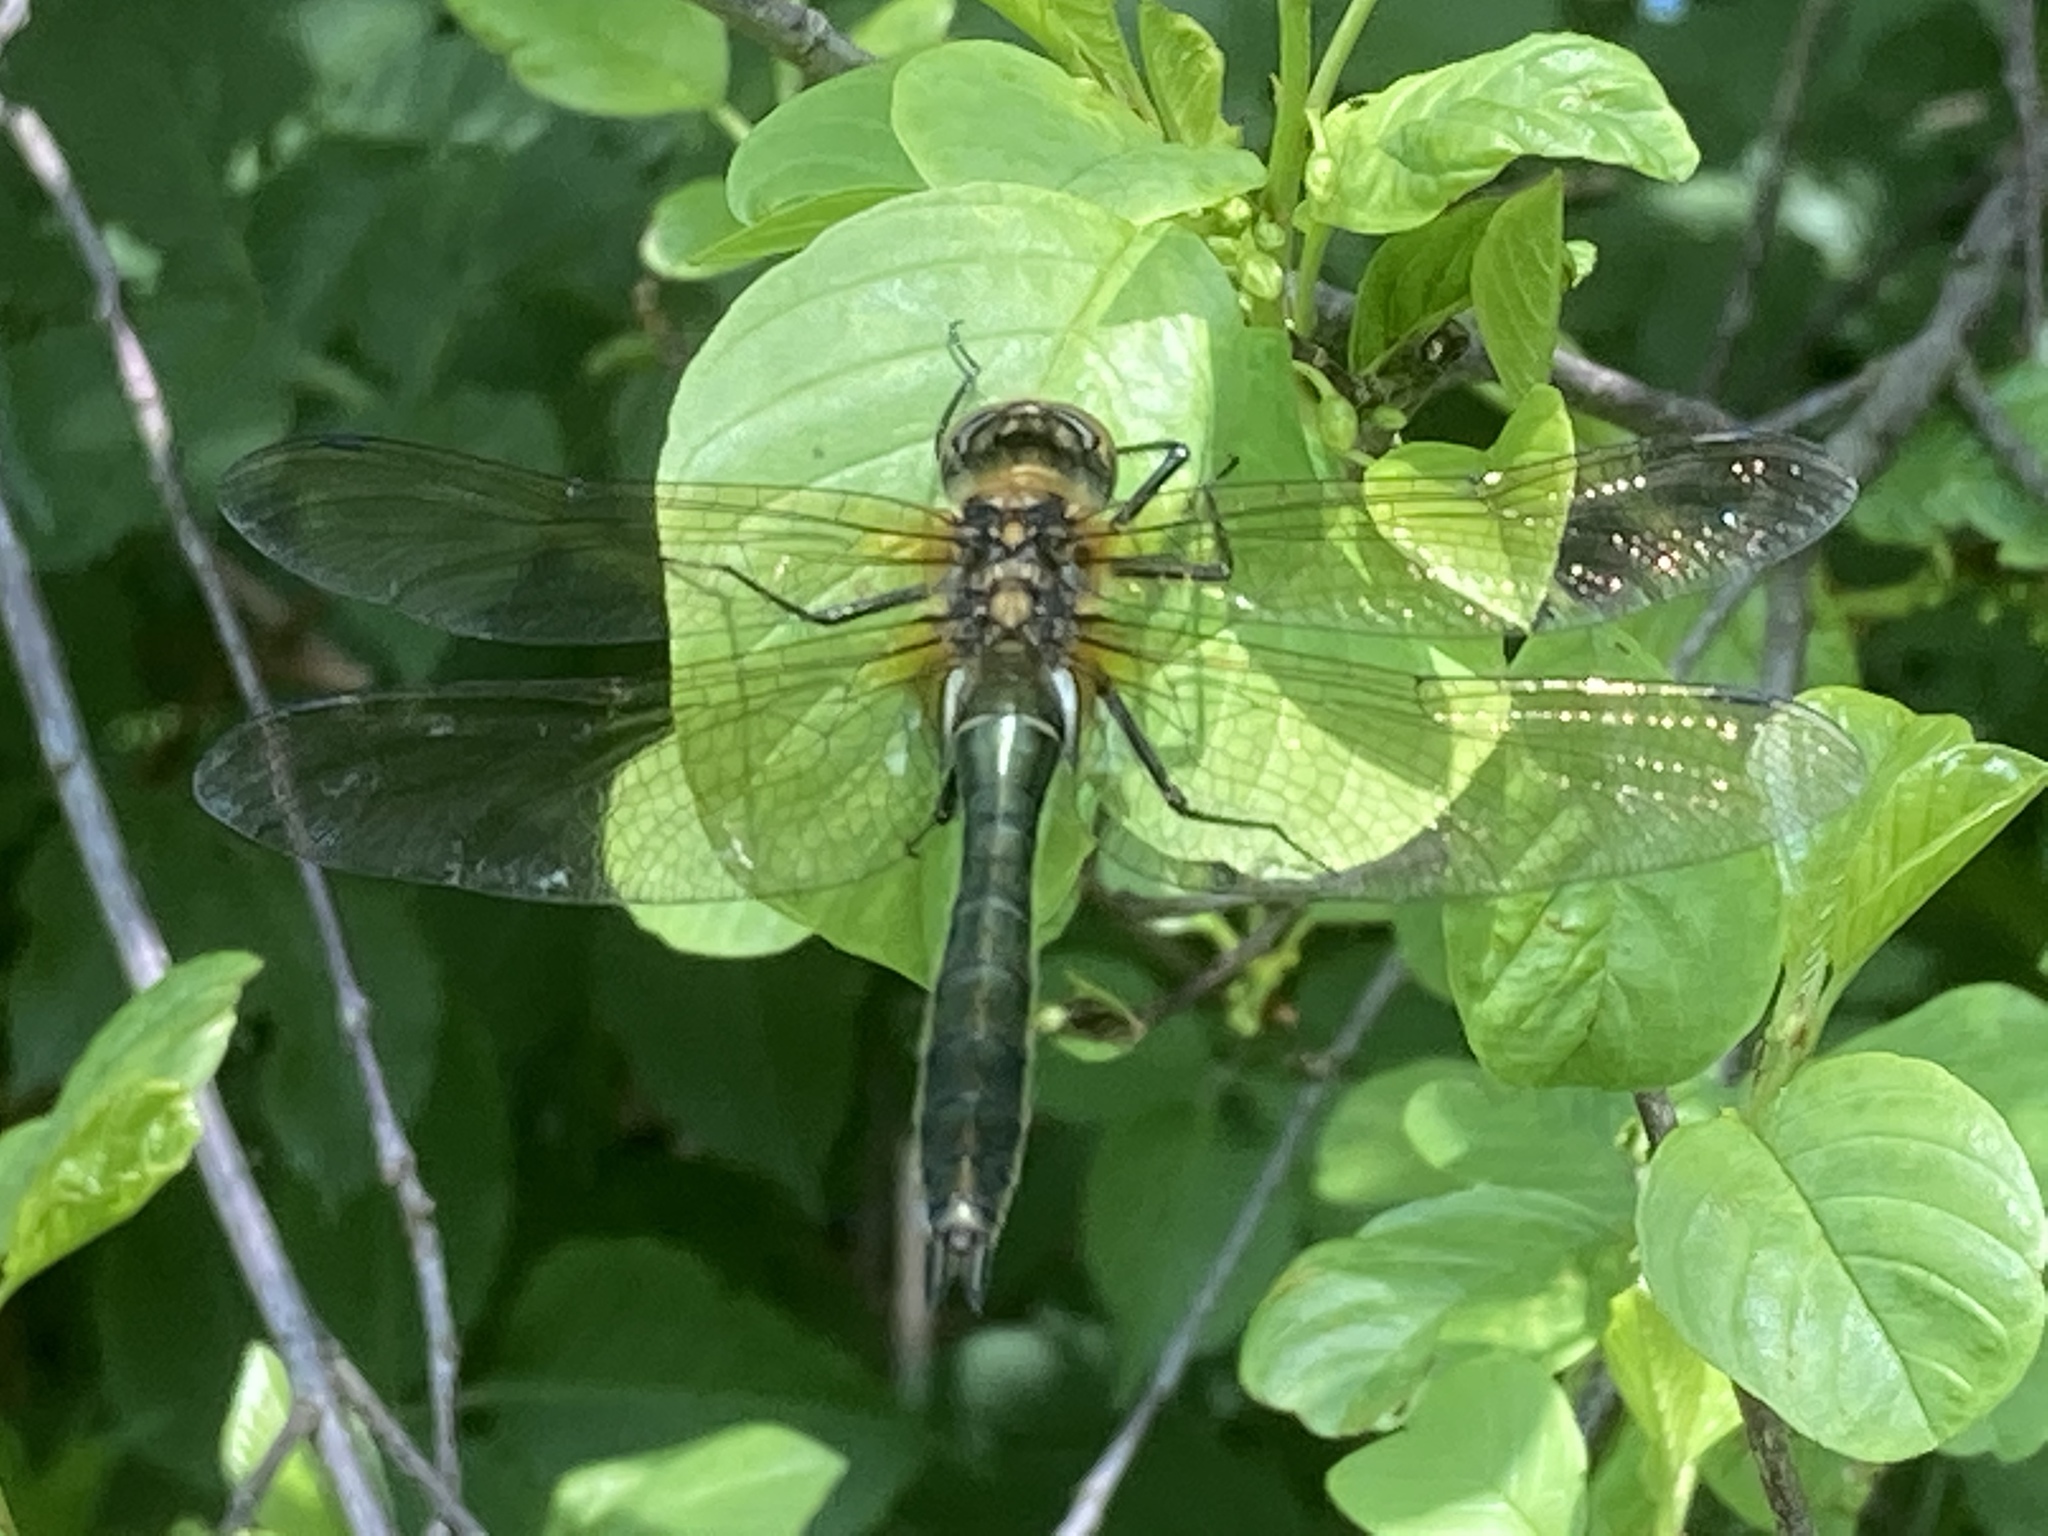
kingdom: Animalia
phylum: Arthropoda
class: Insecta
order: Odonata
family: Corduliidae
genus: Cordulia
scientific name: Cordulia aenea
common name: Downy emerald
